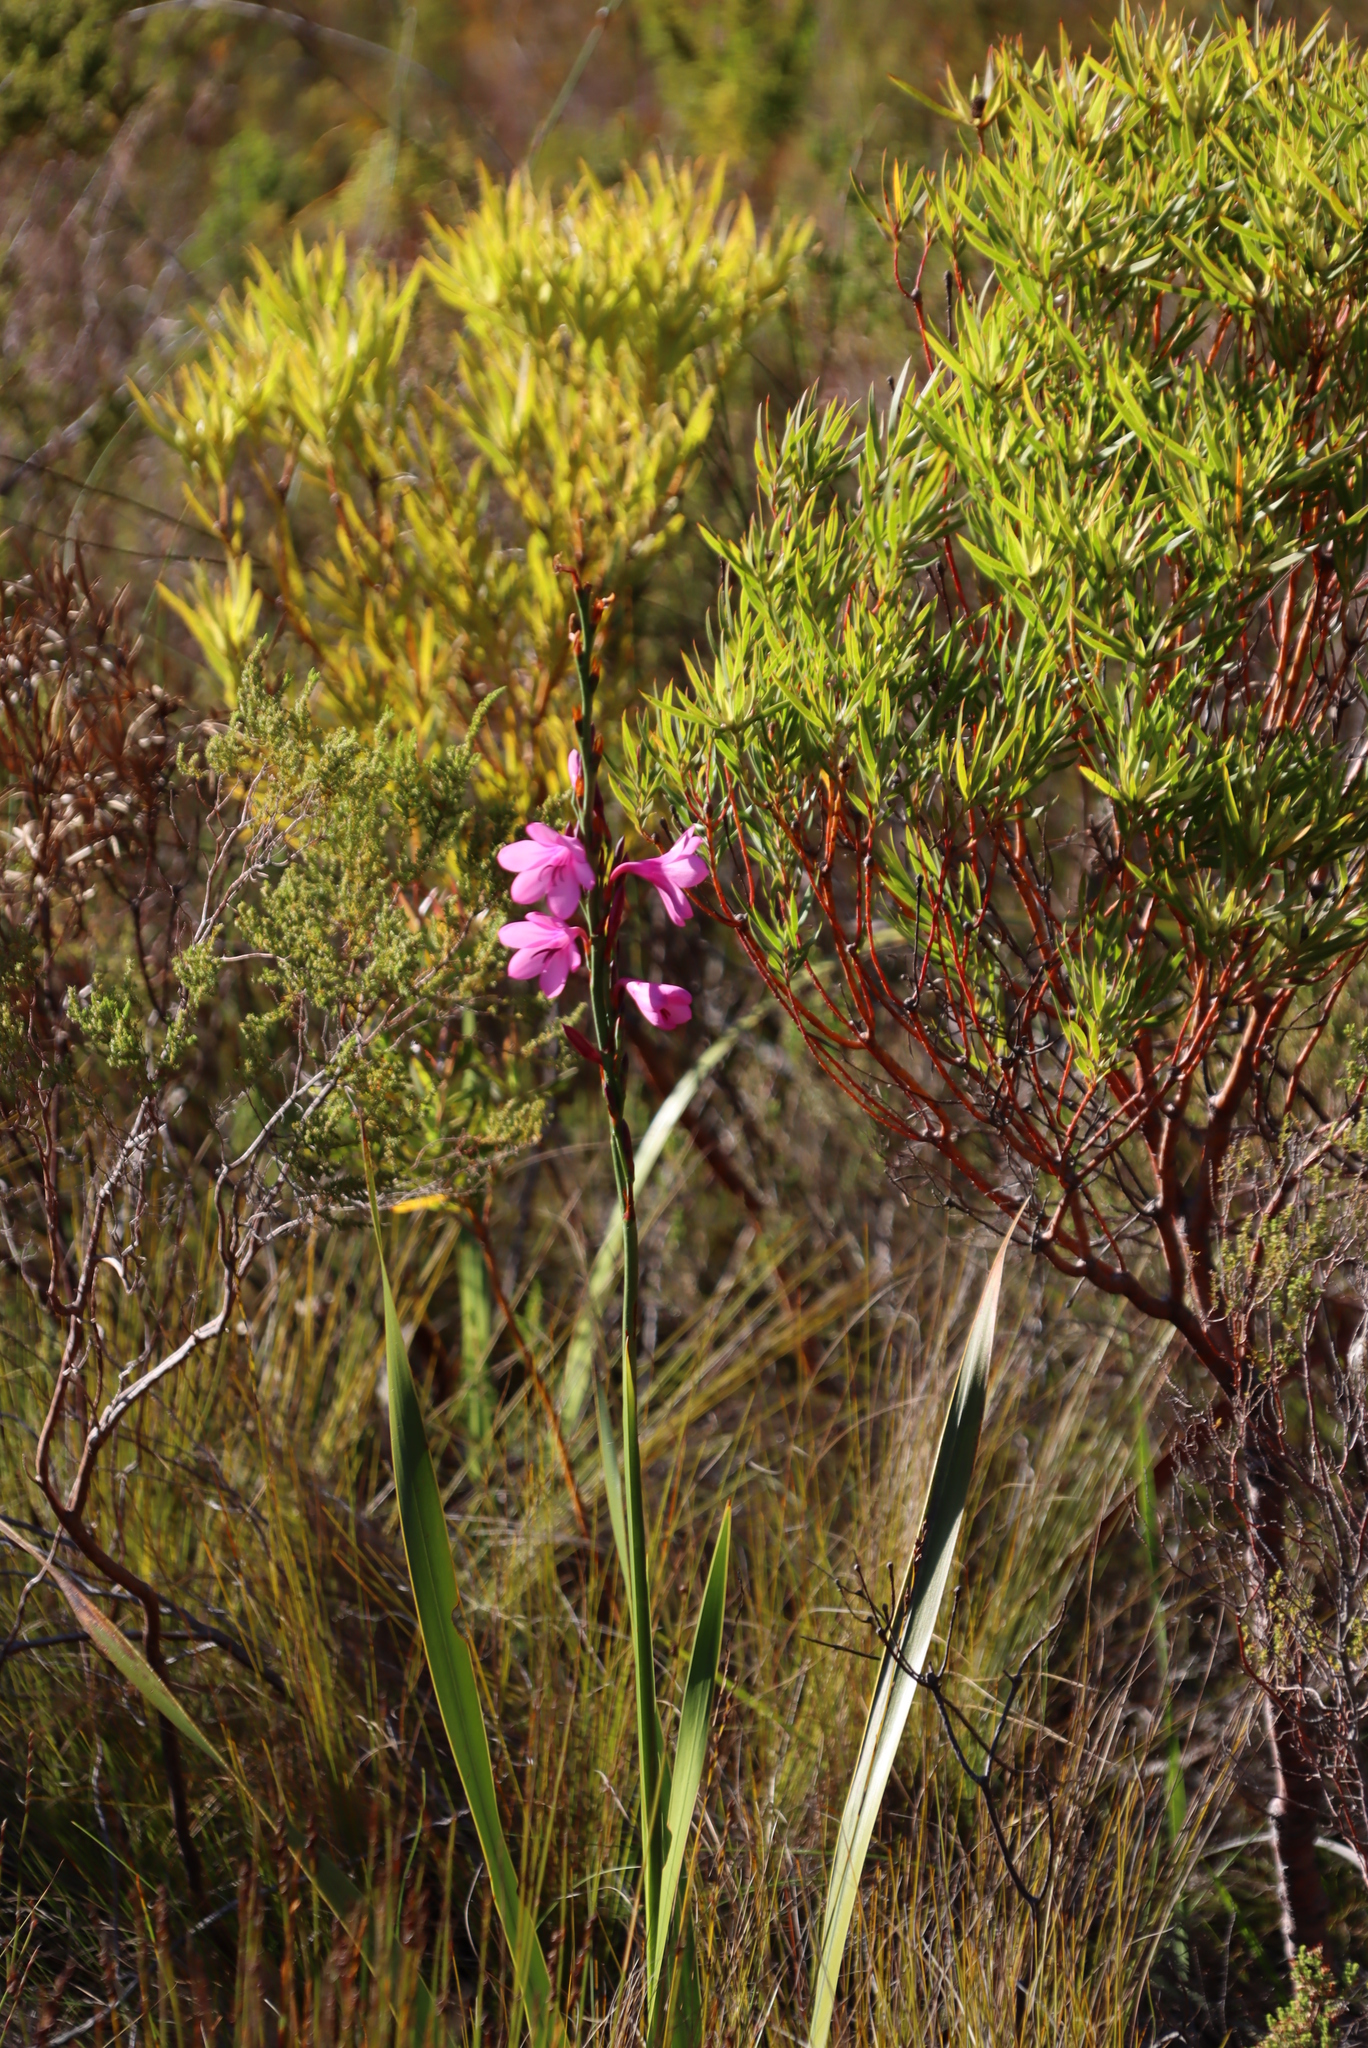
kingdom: Plantae
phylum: Tracheophyta
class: Liliopsida
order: Asparagales
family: Iridaceae
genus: Watsonia
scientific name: Watsonia borbonica
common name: Bugle-lily
